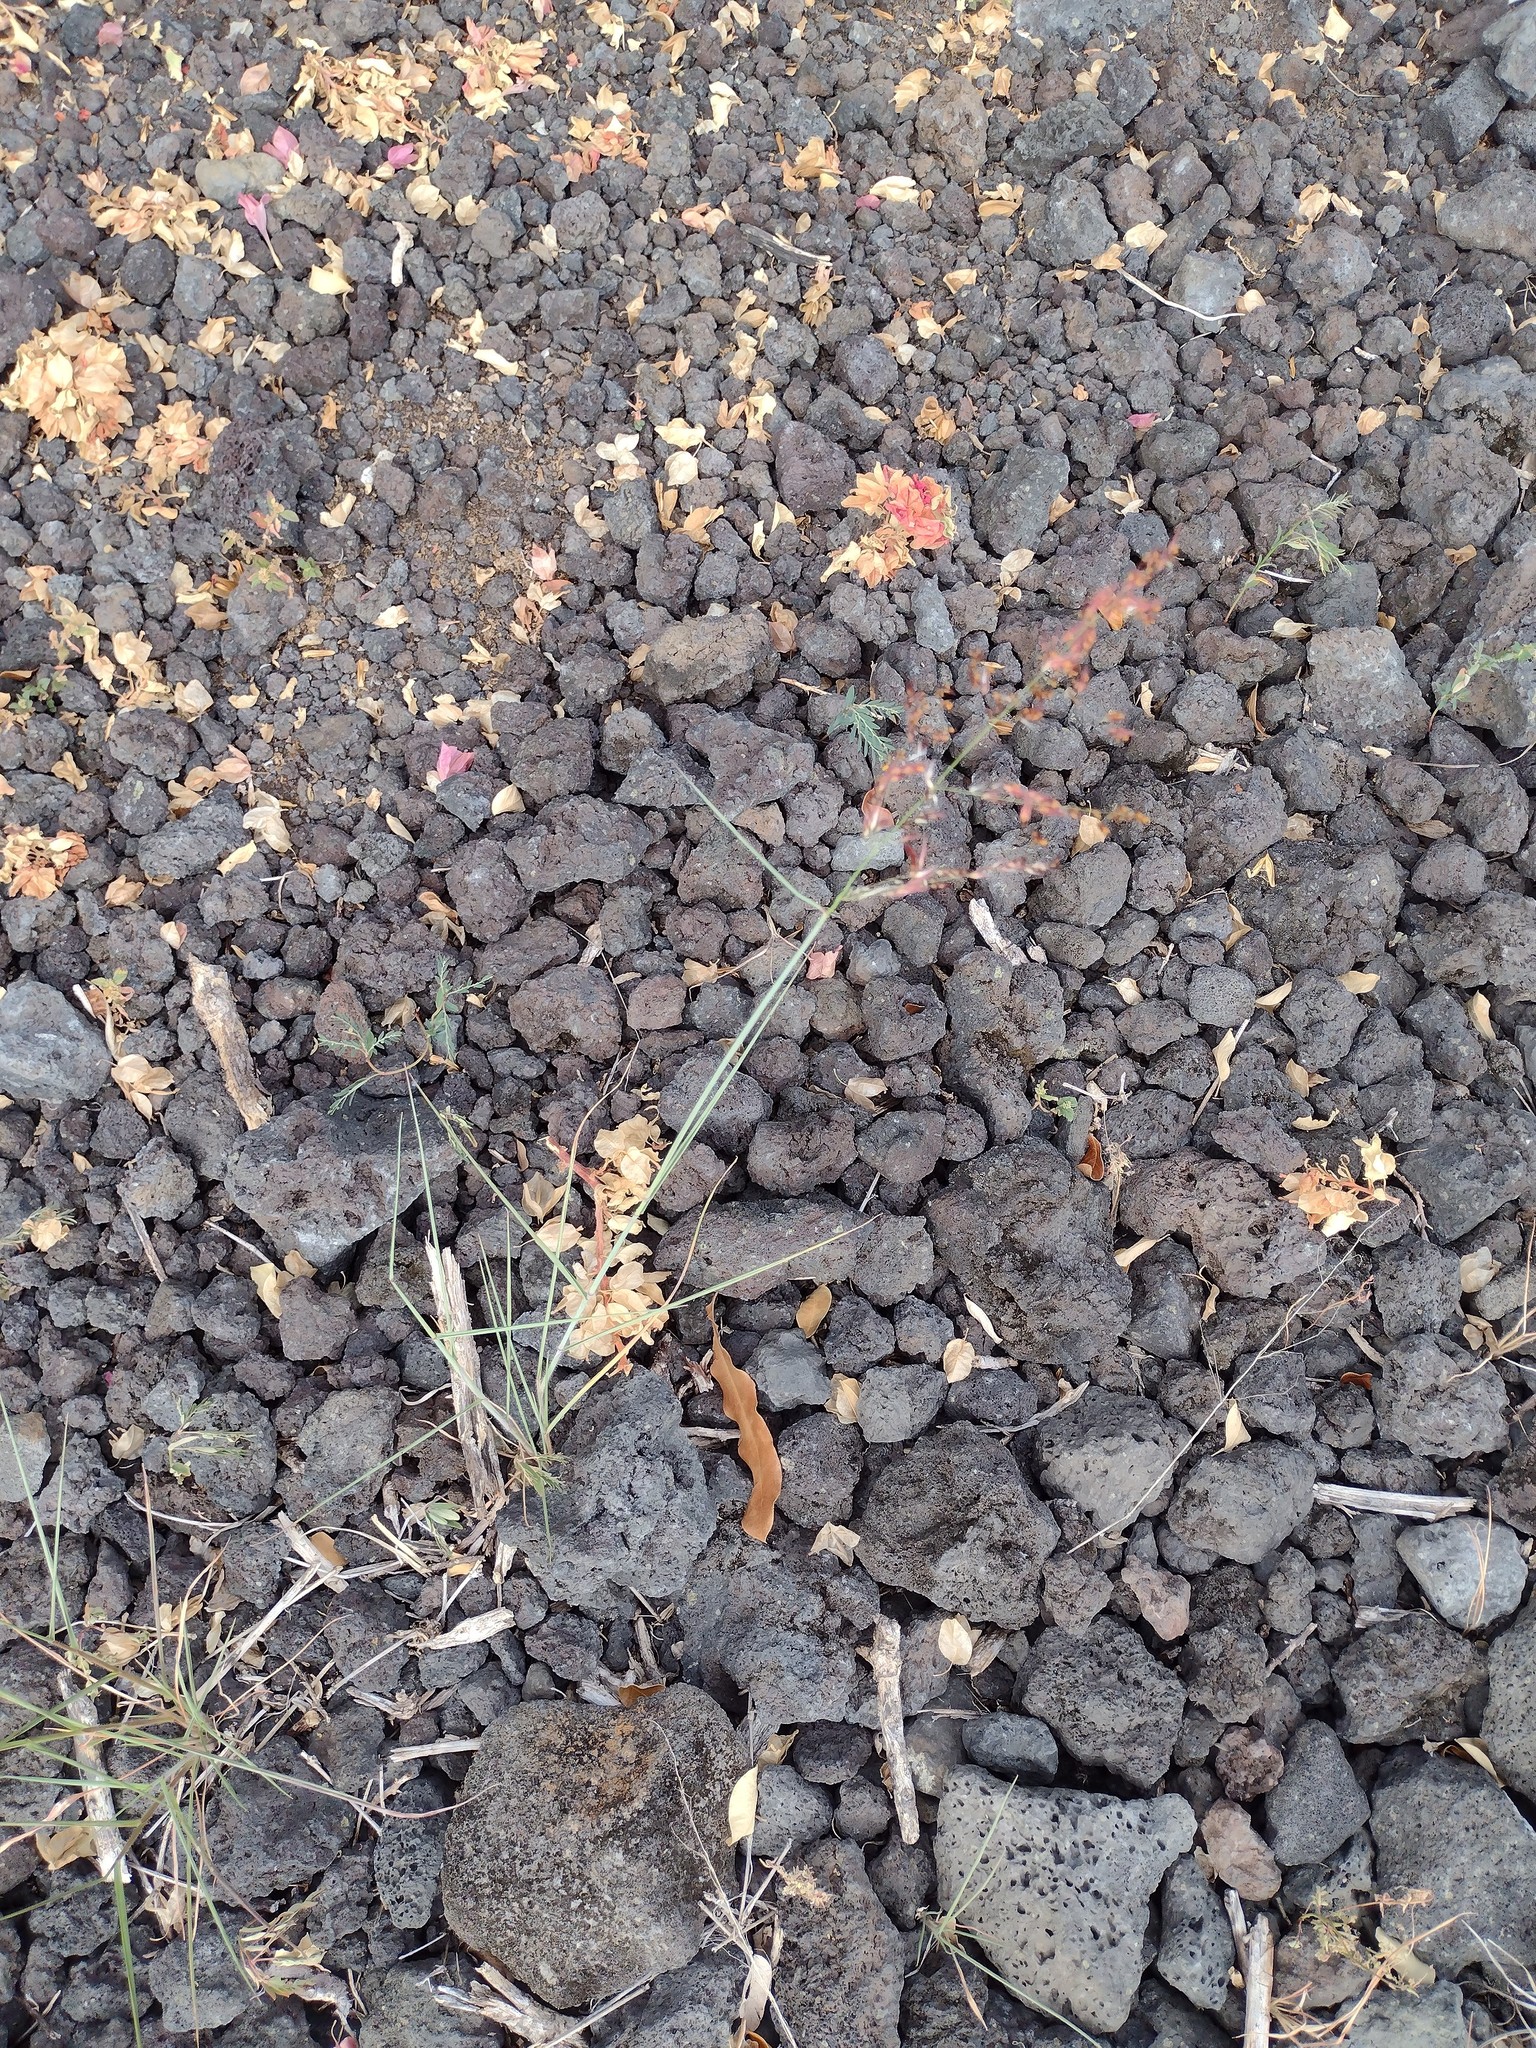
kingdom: Plantae
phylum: Tracheophyta
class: Liliopsida
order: Poales
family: Poaceae
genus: Melinis
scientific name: Melinis repens
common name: Rose natal grass
